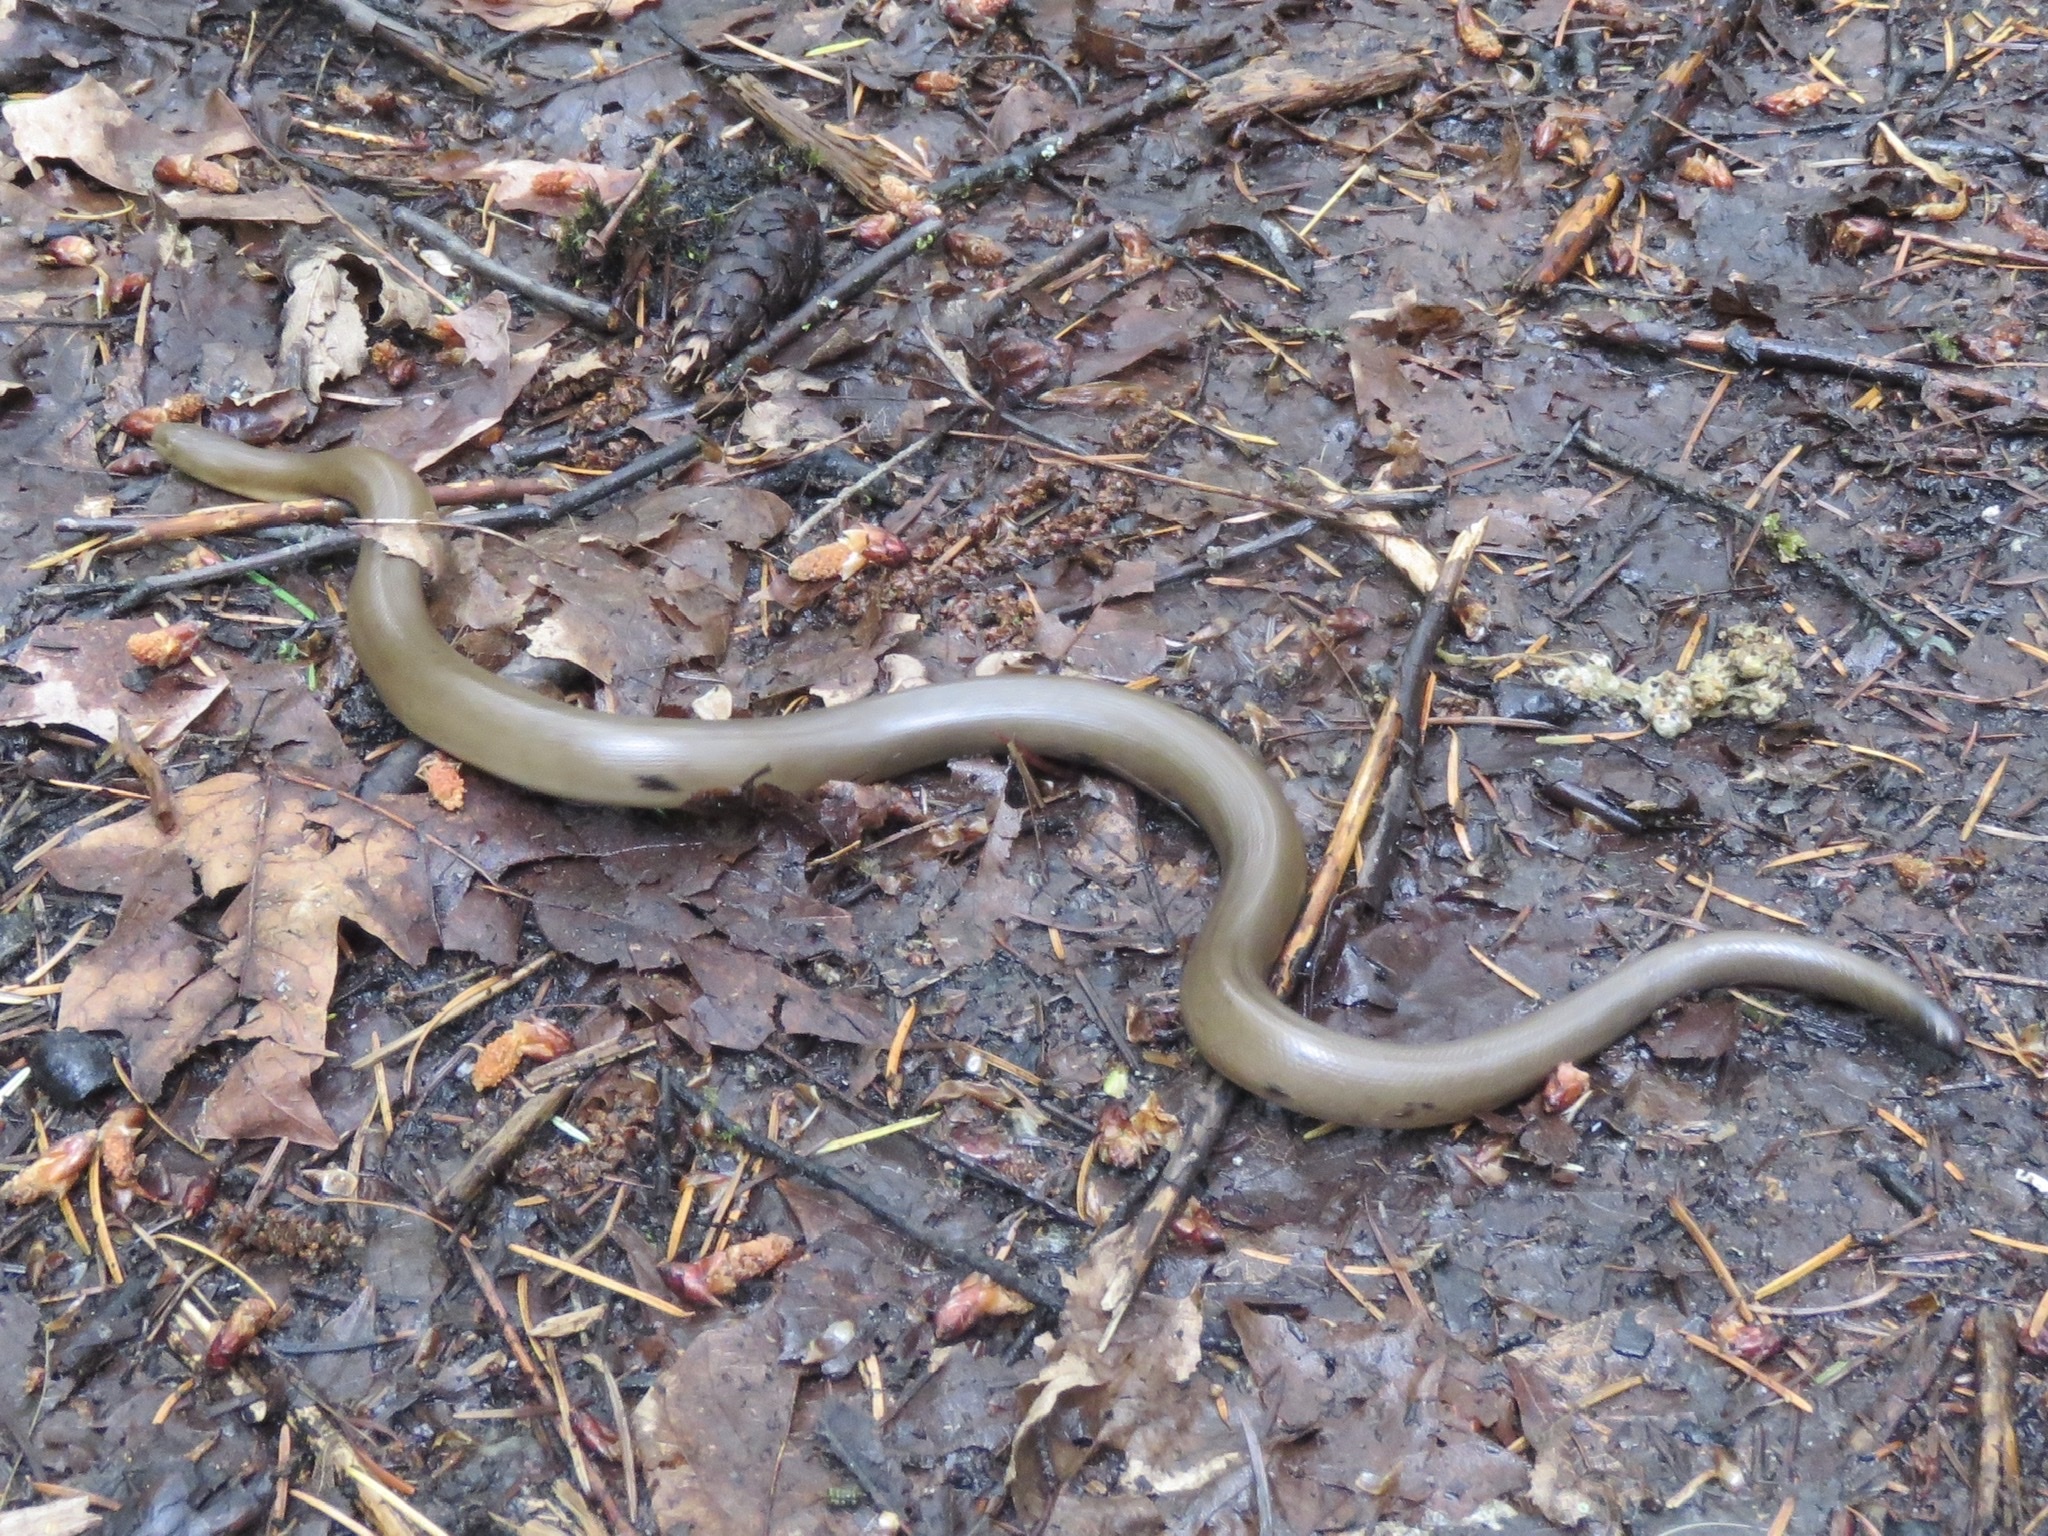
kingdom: Animalia
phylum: Chordata
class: Squamata
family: Boidae
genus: Charina
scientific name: Charina bottae
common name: Northern rubber boa
